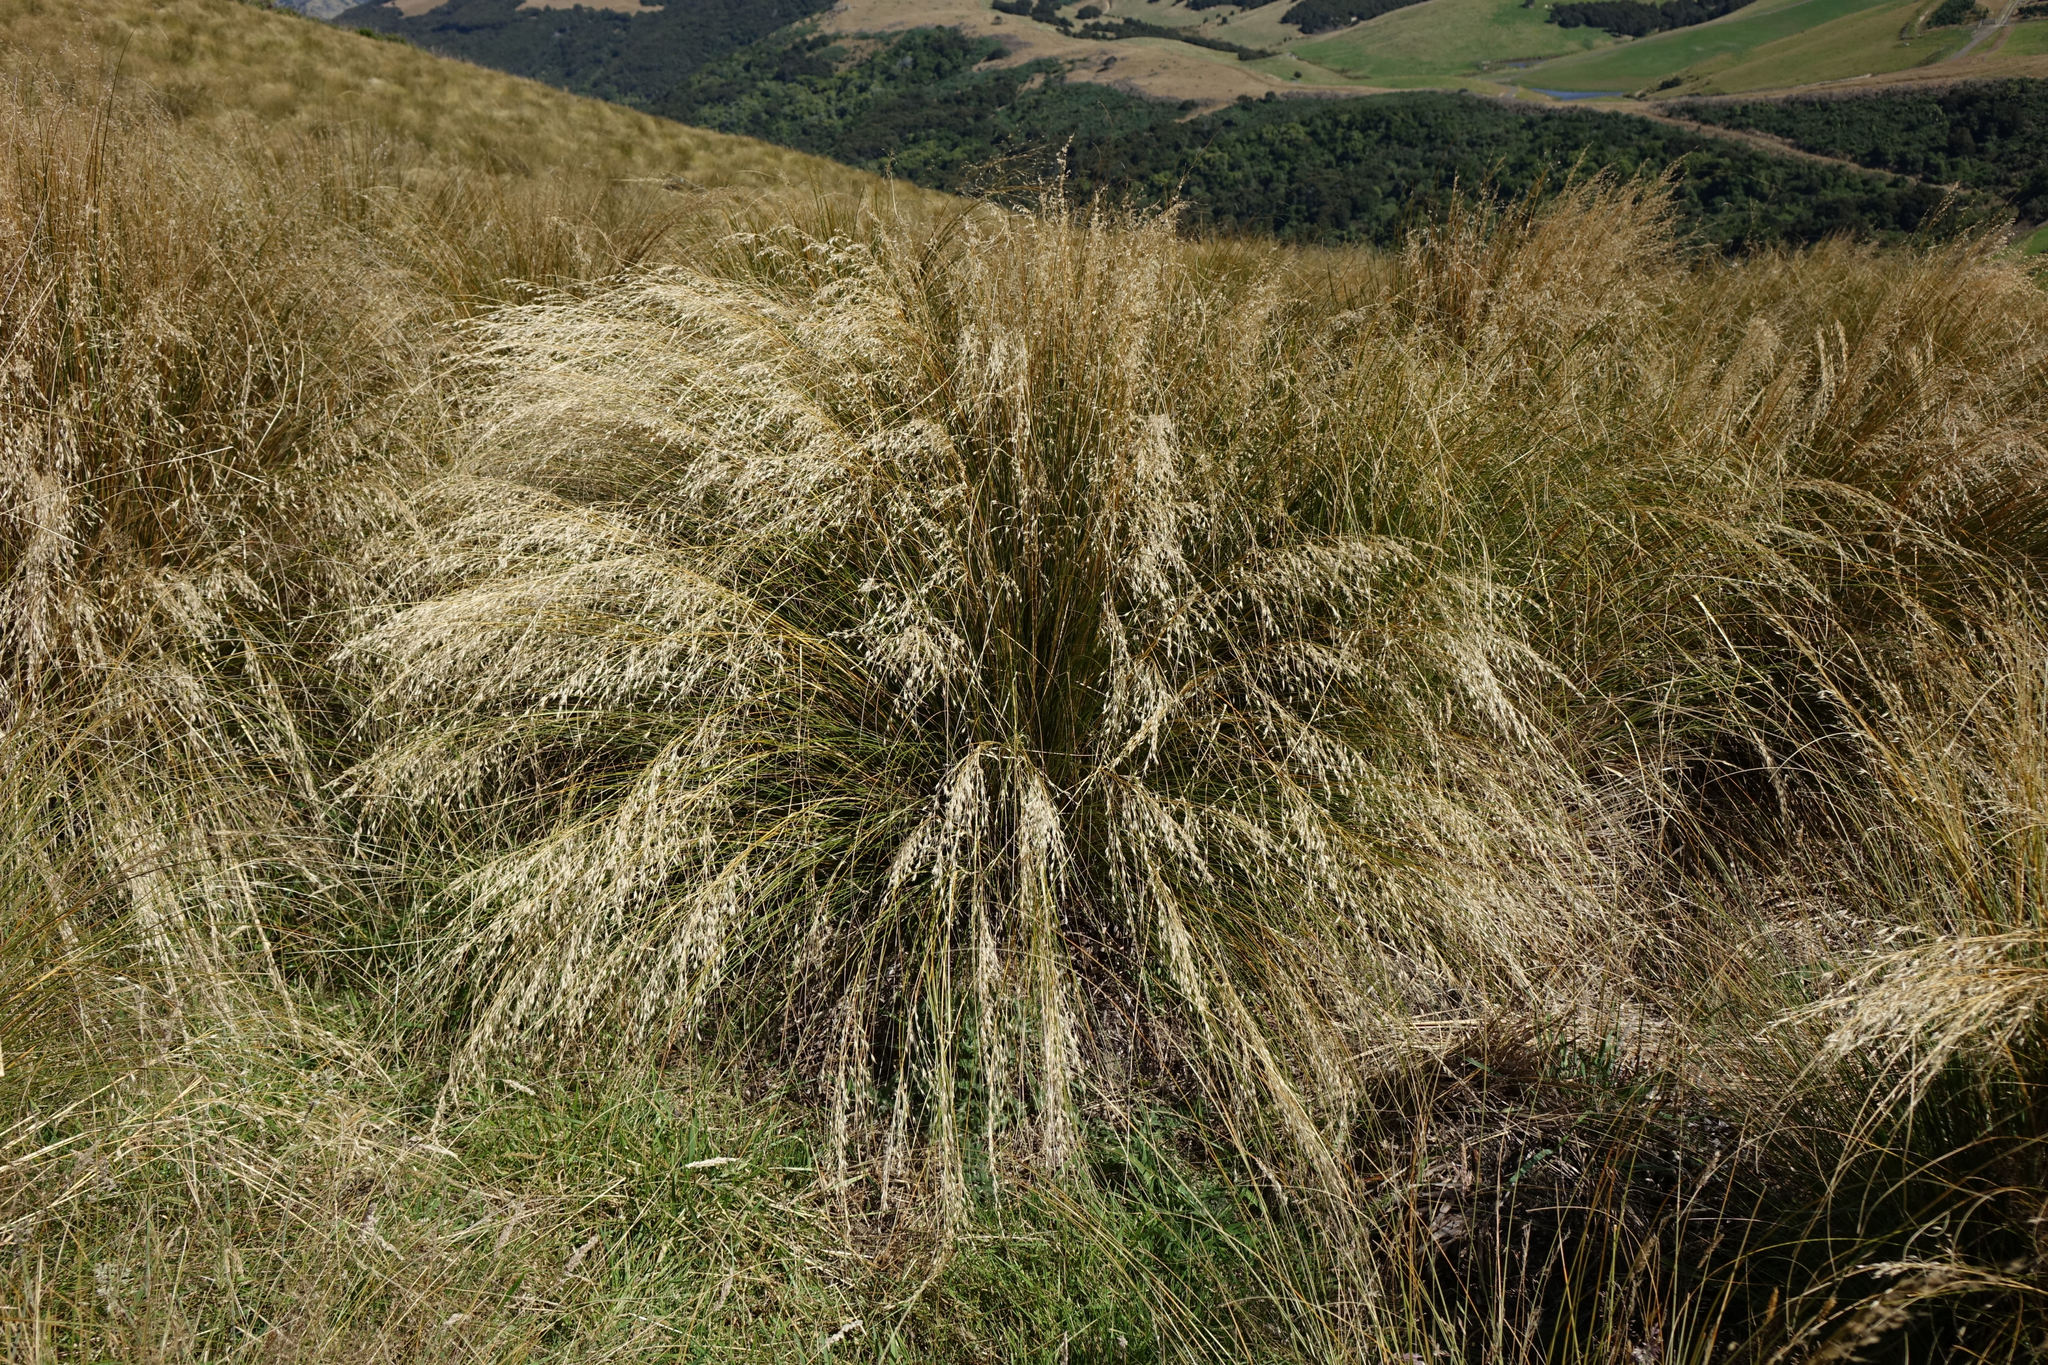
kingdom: Plantae
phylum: Tracheophyta
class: Liliopsida
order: Poales
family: Poaceae
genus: Chionochloa
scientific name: Chionochloa rigida
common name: Narrow leaved snow tussock
